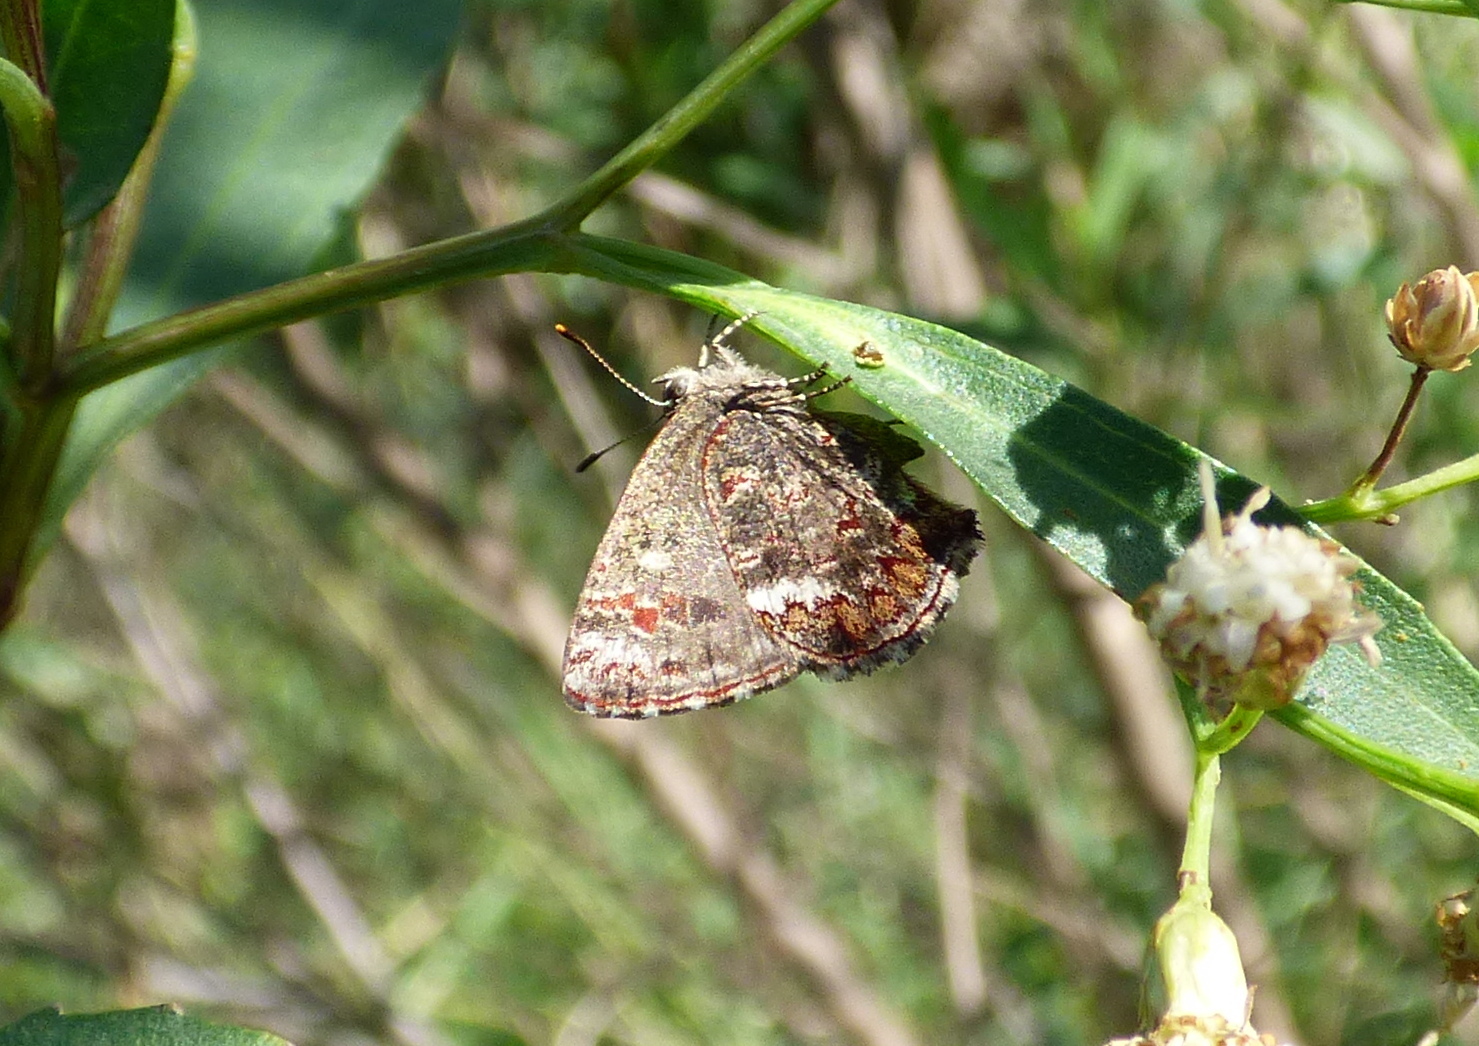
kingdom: Animalia
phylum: Arthropoda
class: Insecta
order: Lepidoptera
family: Lycaenidae
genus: Ministrymon
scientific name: Ministrymon
